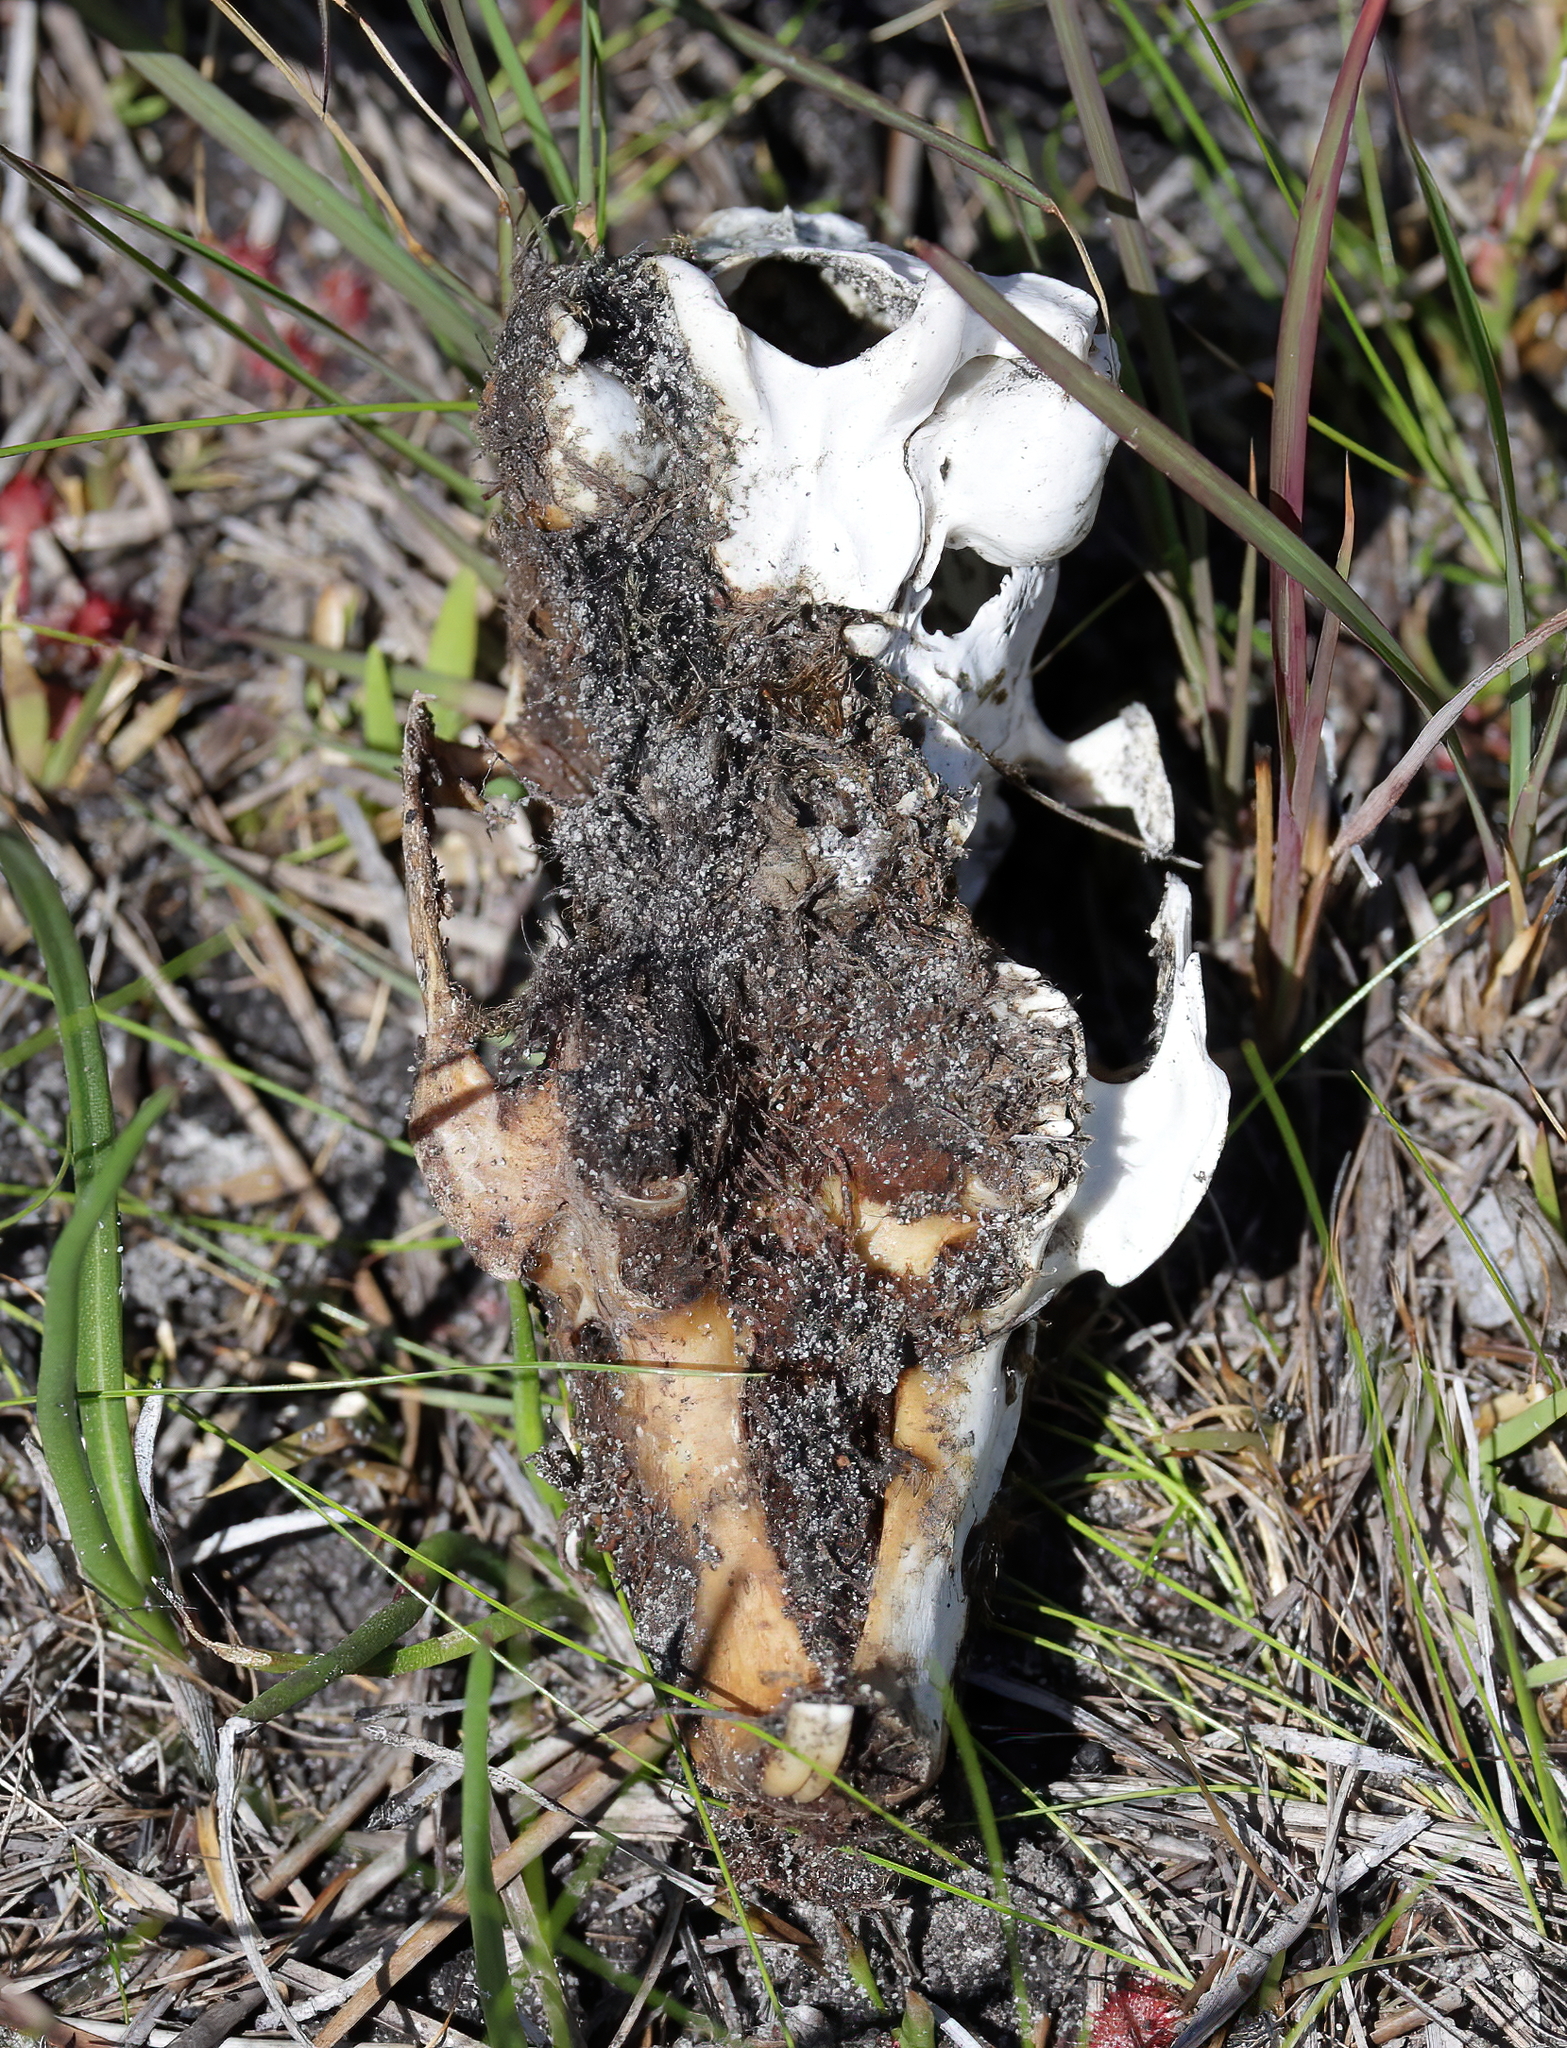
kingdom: Animalia
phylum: Chordata
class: Mammalia
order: Lagomorpha
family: Leporidae
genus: Sylvilagus
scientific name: Sylvilagus aquaticus
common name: Swamp rabbit
